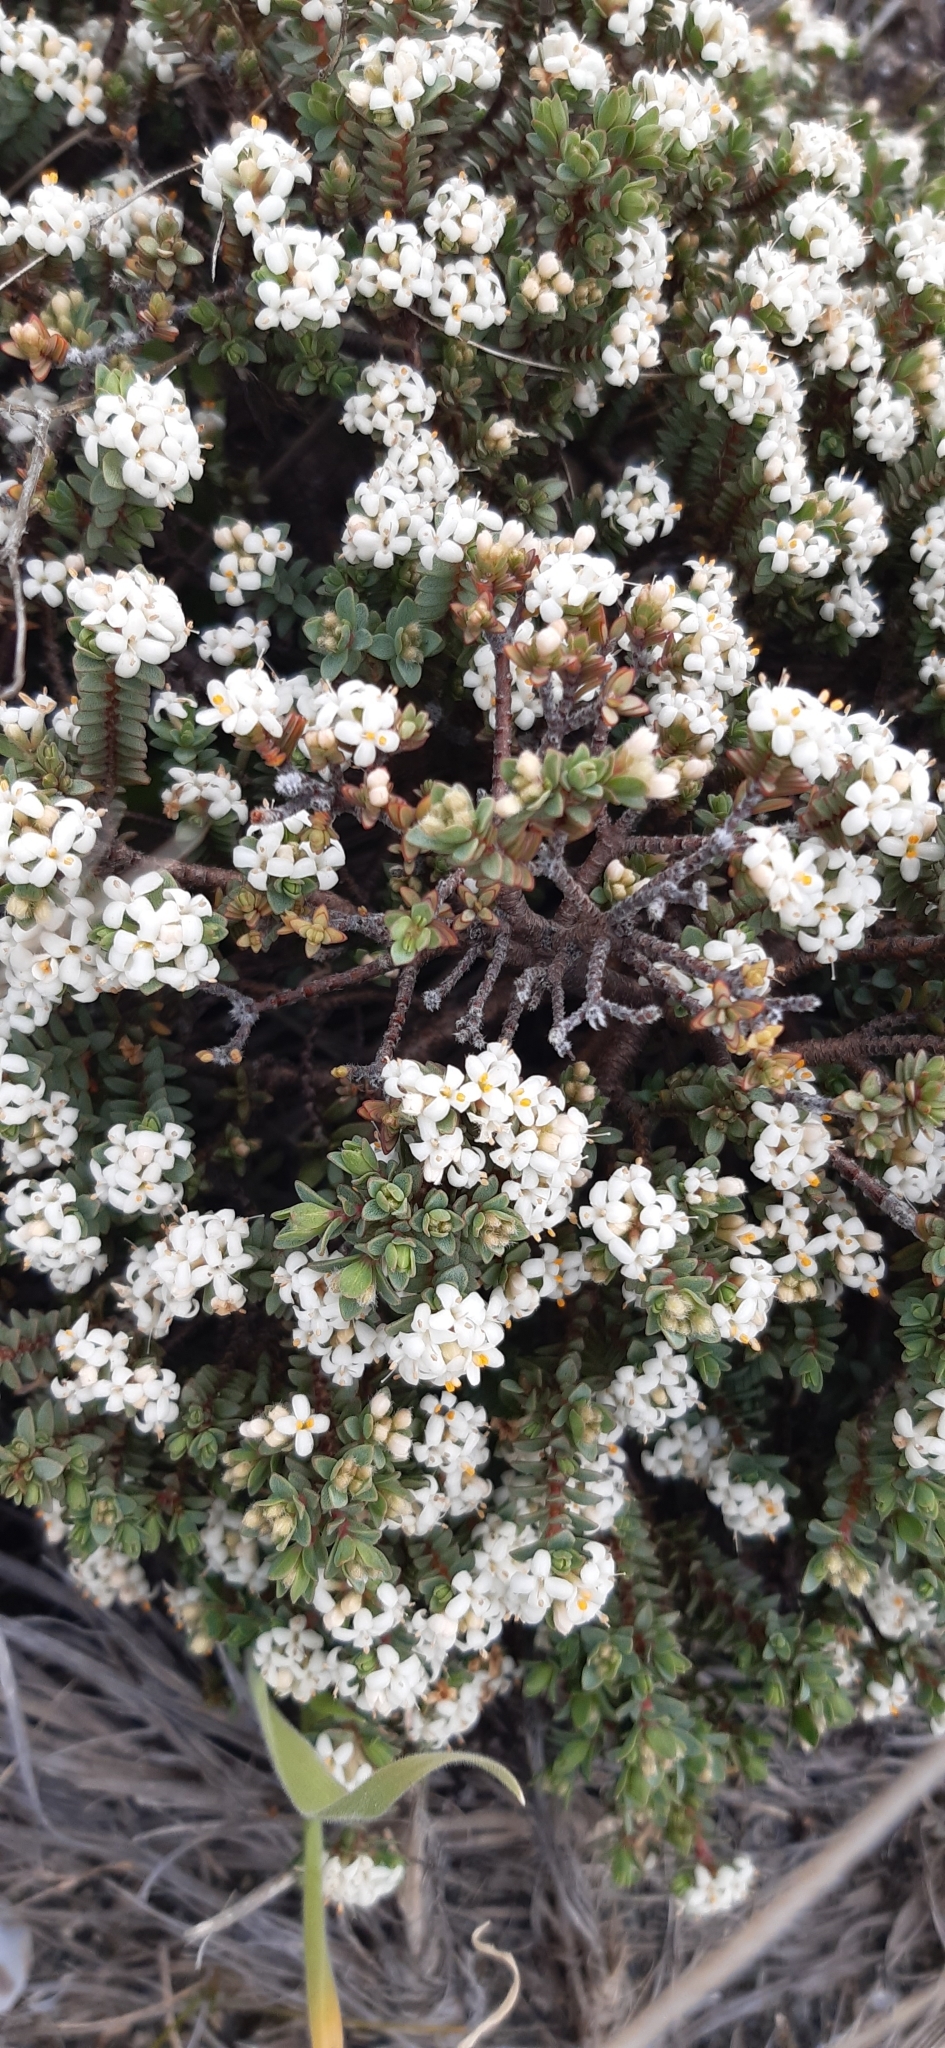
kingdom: Plantae
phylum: Tracheophyta
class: Magnoliopsida
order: Malvales
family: Thymelaeaceae
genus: Pimelea
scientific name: Pimelea prostrata
